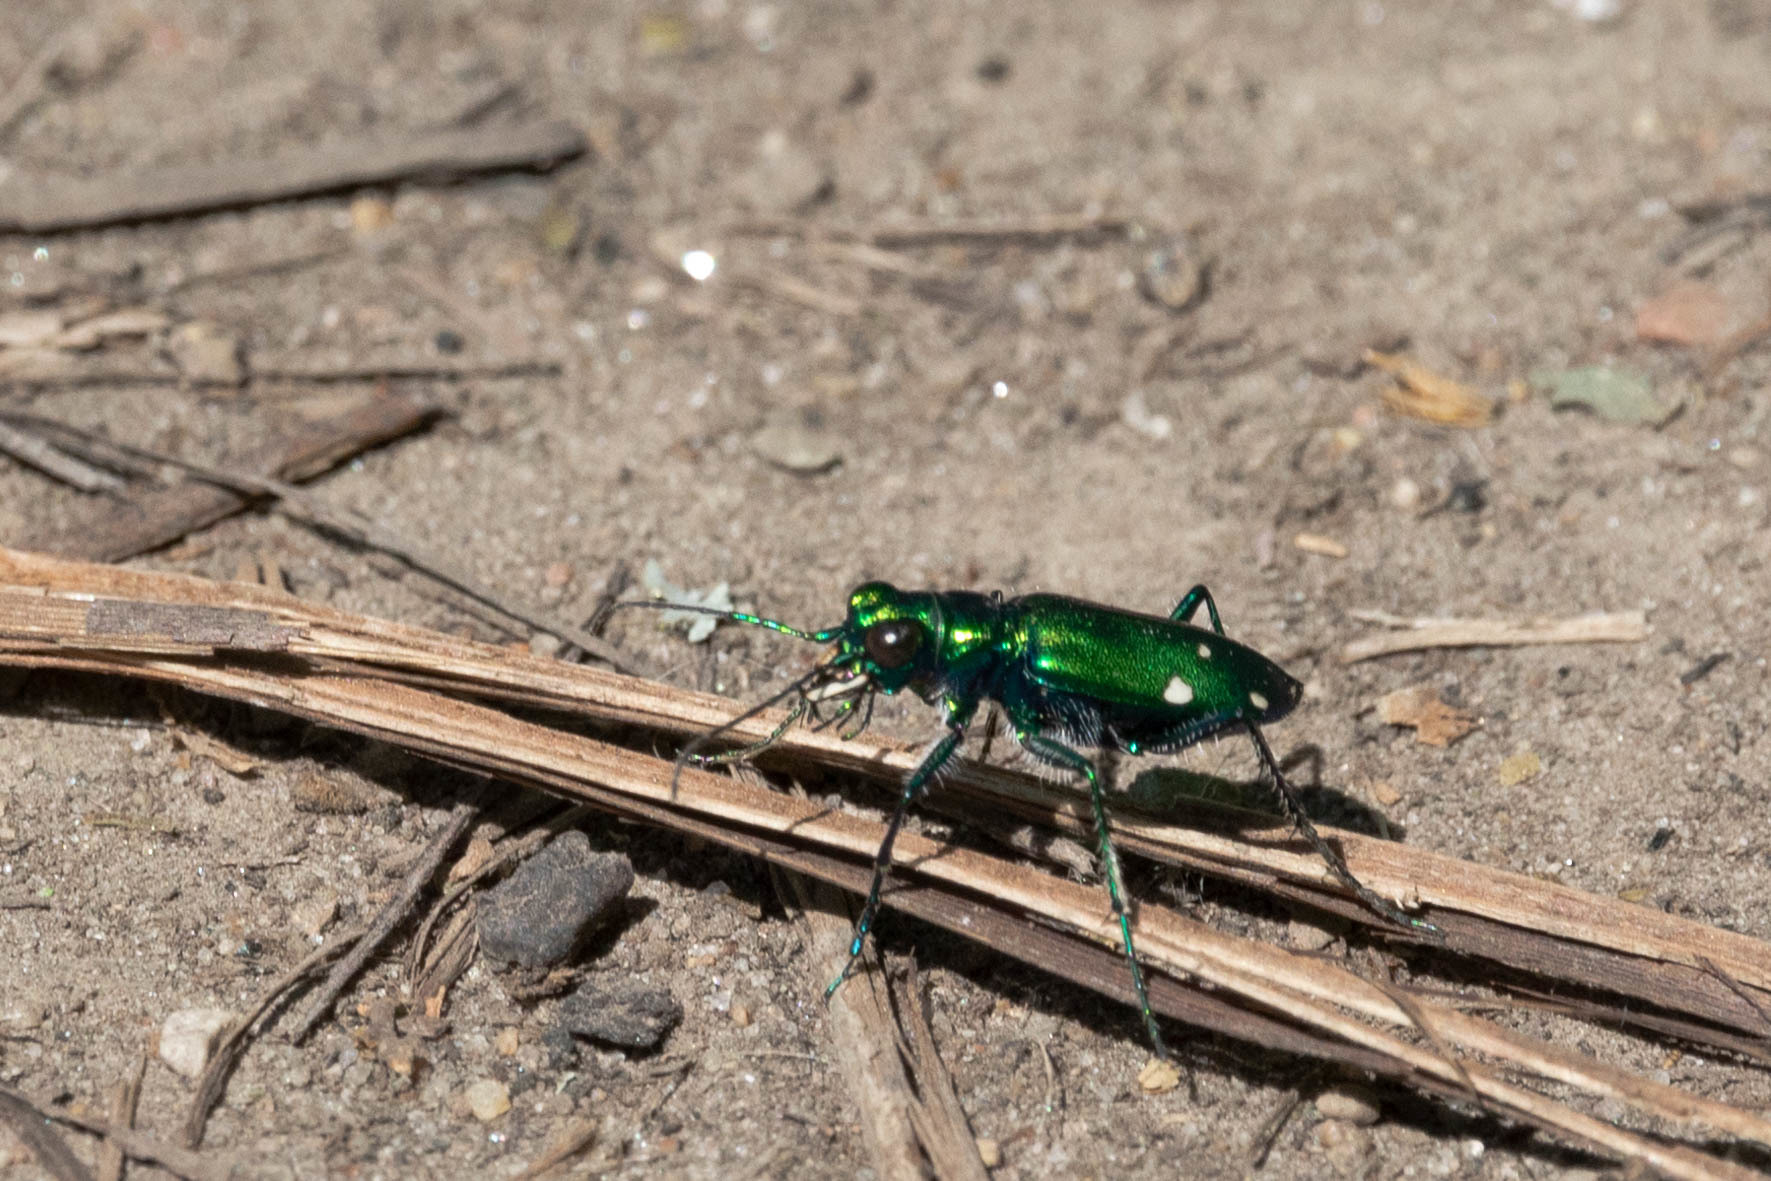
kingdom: Animalia
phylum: Arthropoda
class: Insecta
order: Coleoptera
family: Carabidae
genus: Cicindela
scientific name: Cicindela sexguttata
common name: Six-spotted tiger beetle
